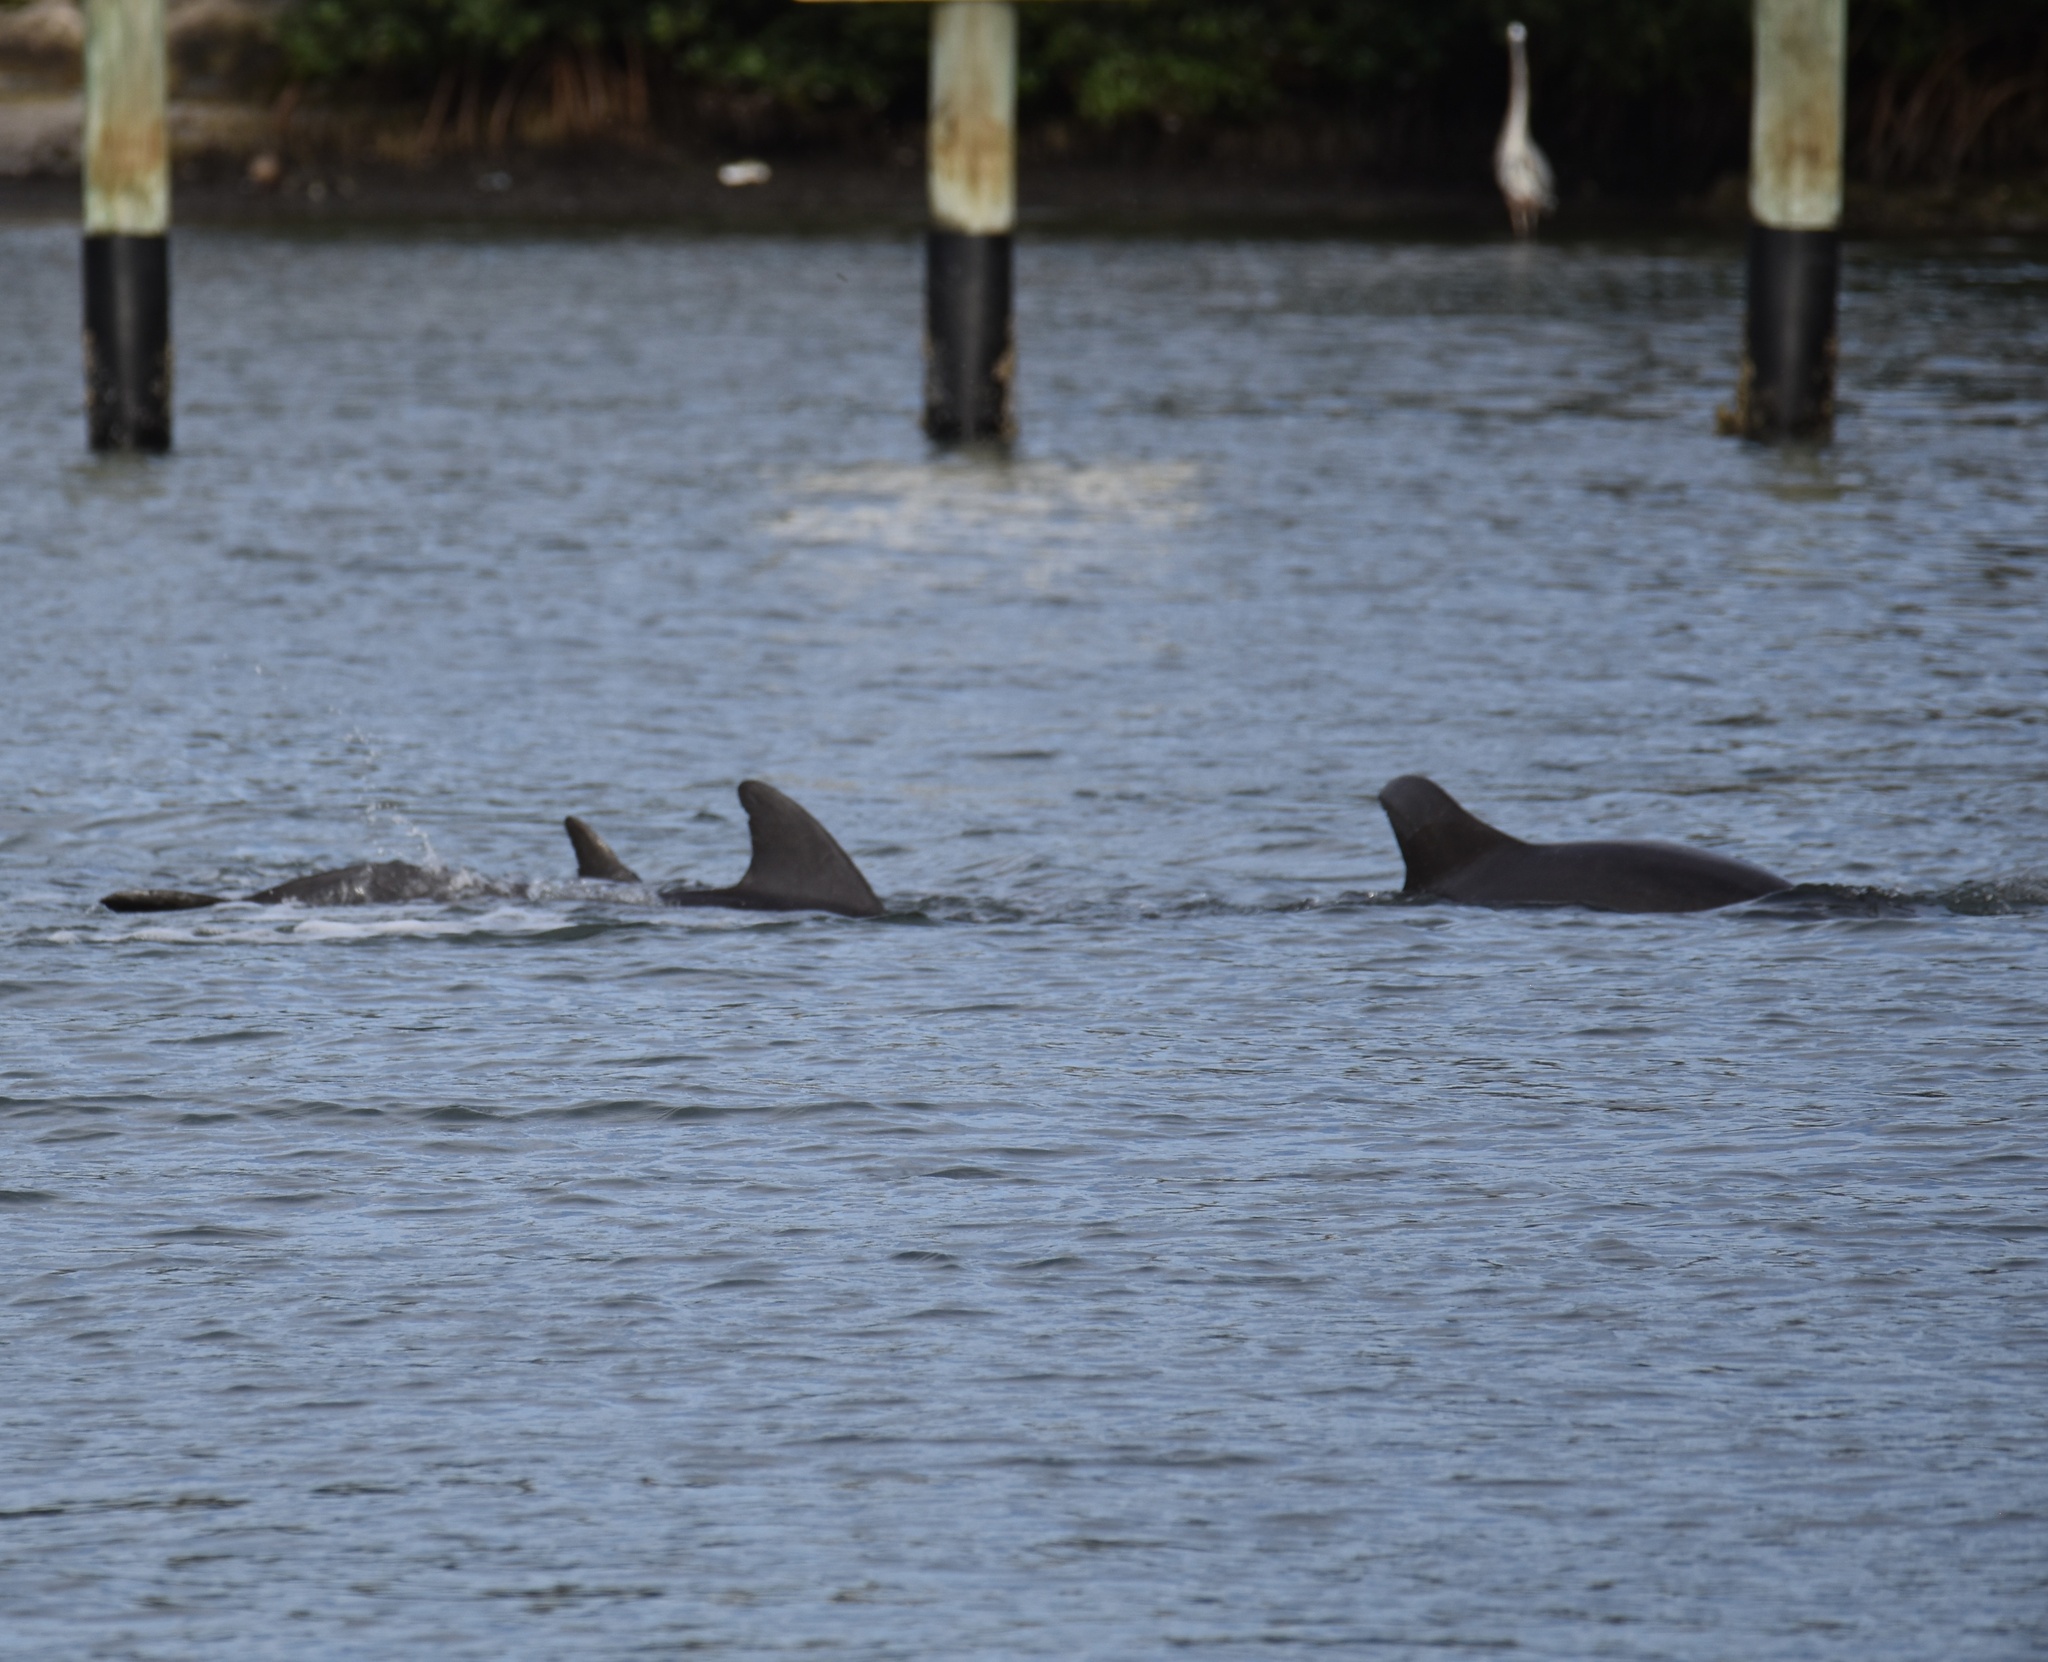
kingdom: Animalia
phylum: Chordata
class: Mammalia
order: Cetacea
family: Delphinidae
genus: Tursiops
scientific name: Tursiops truncatus
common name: Bottlenose dolphin
